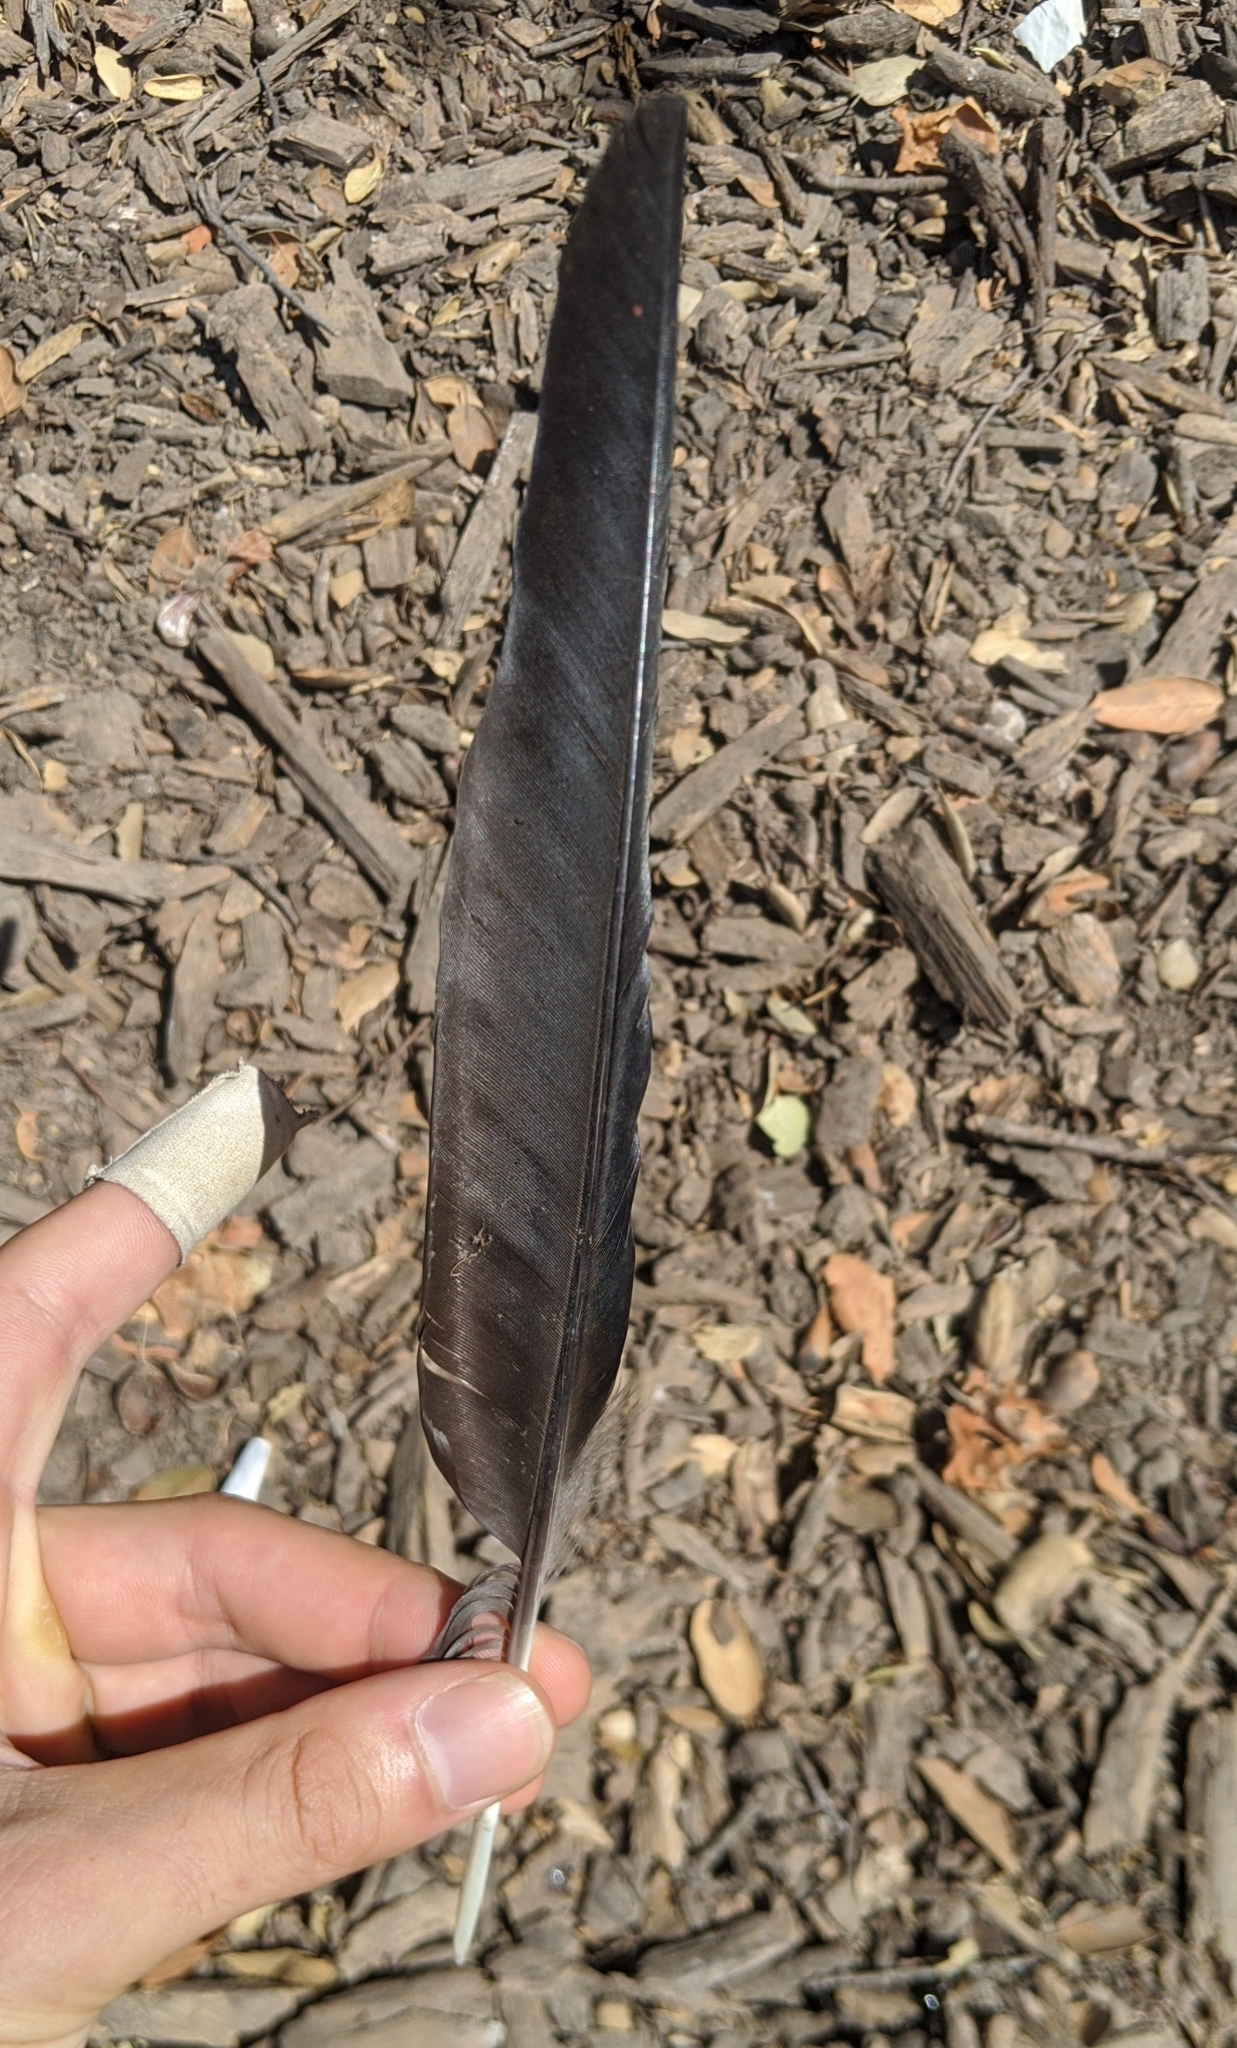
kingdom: Animalia
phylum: Chordata
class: Aves
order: Passeriformes
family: Corvidae
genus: Corvus
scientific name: Corvus brachyrhynchos
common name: American crow
